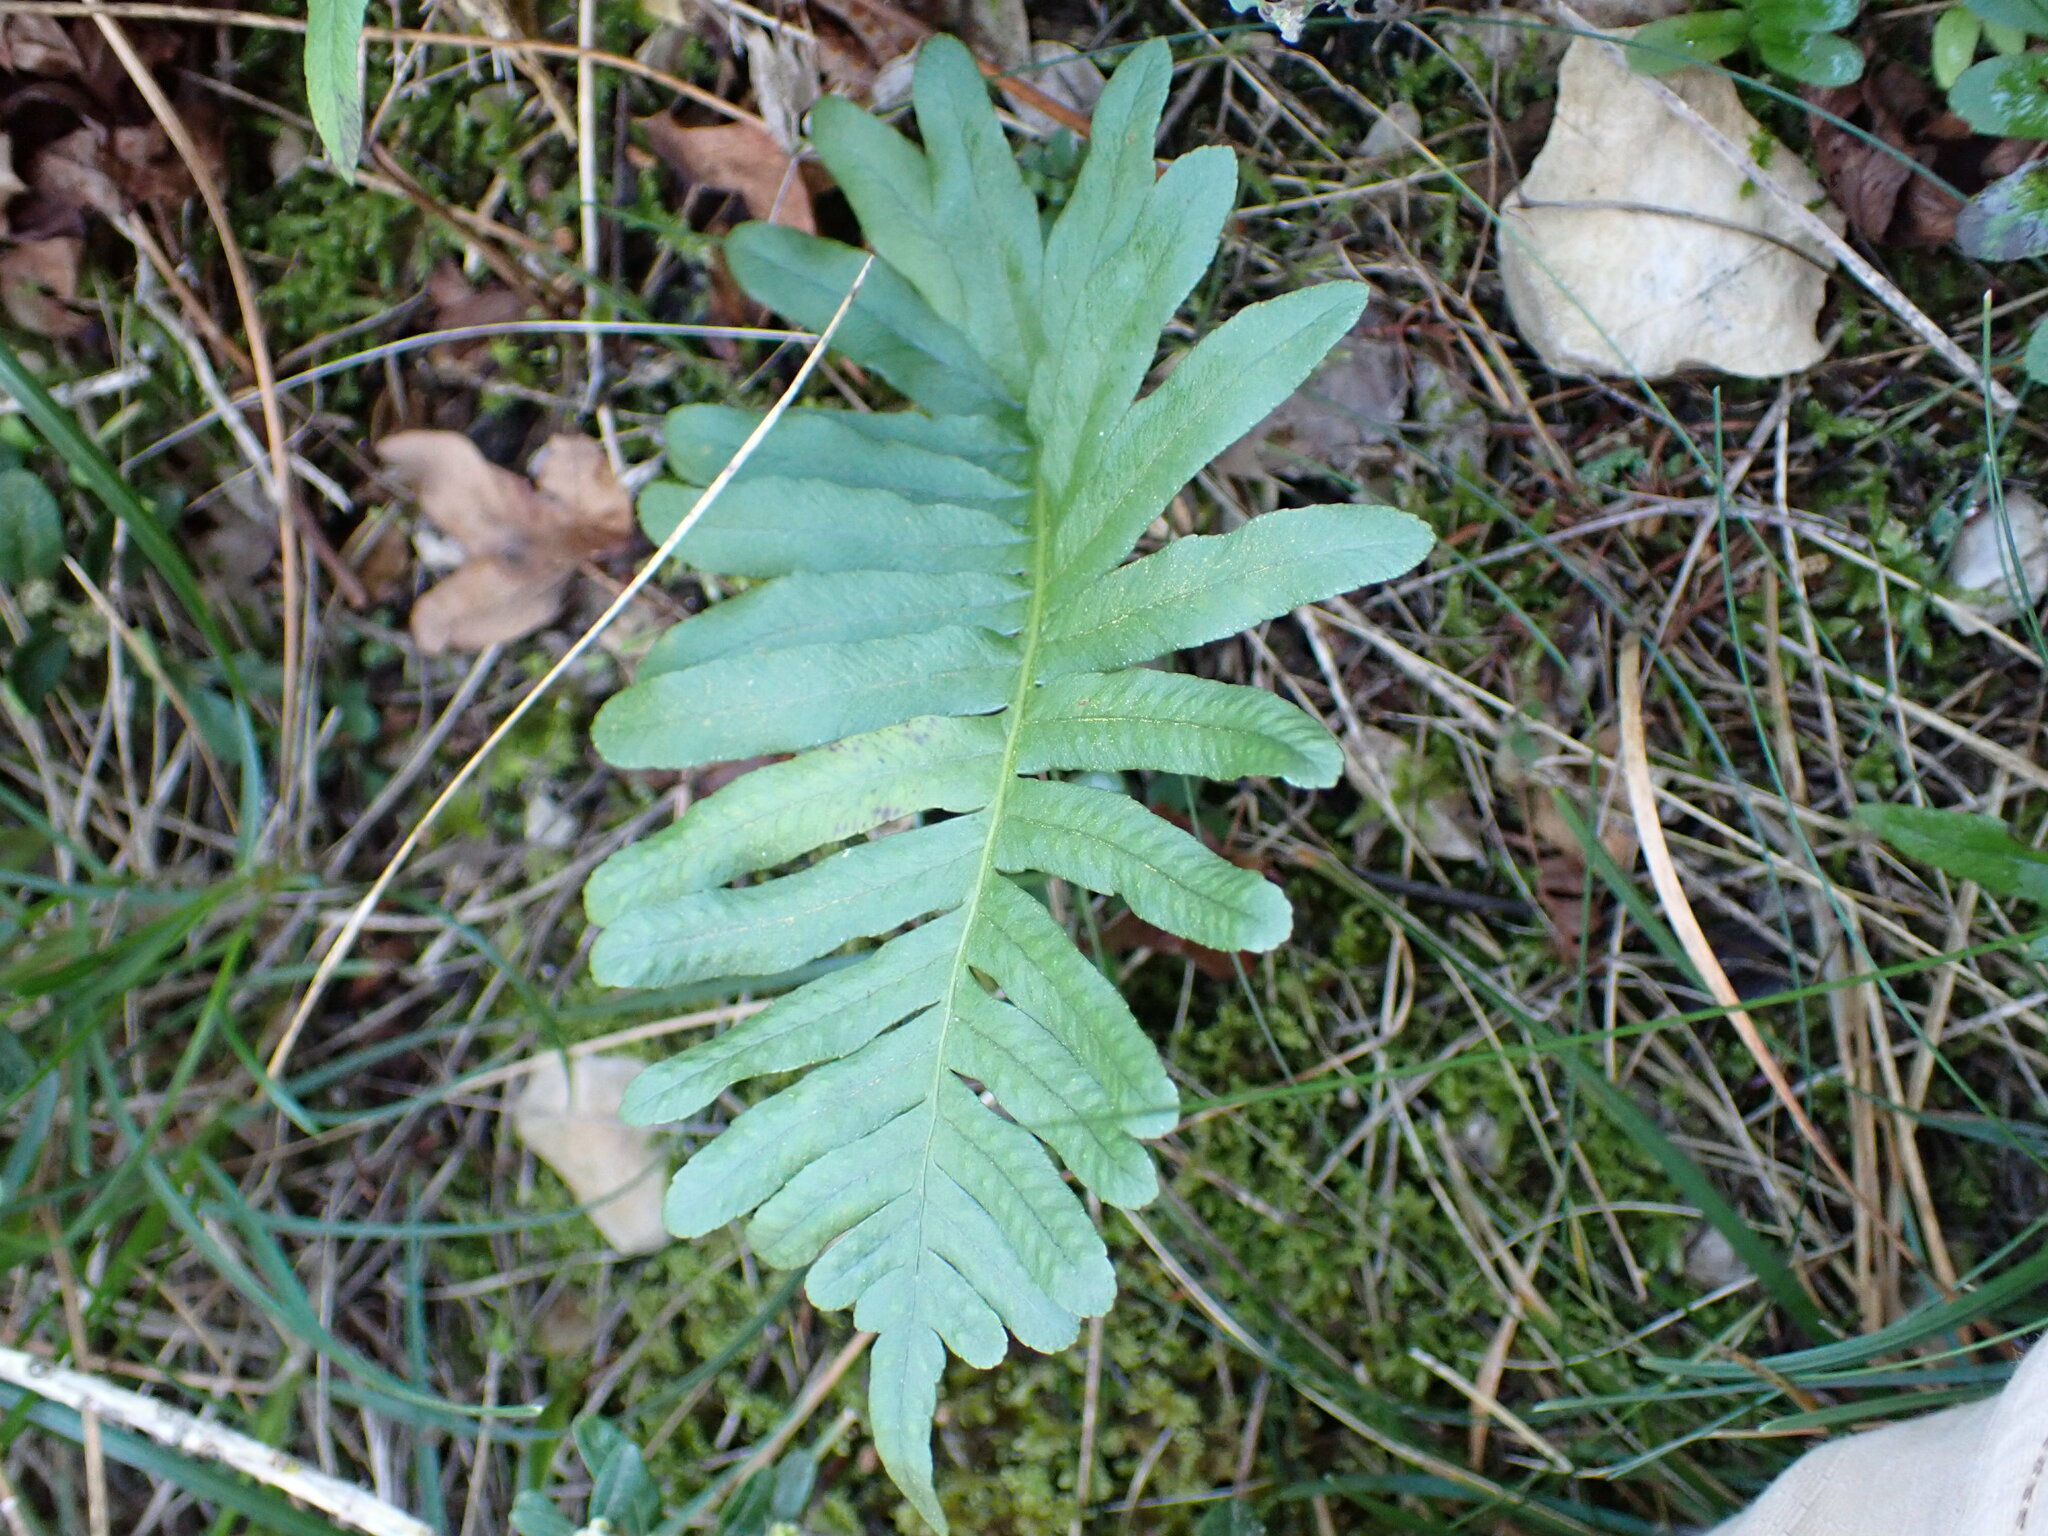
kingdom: Plantae
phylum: Tracheophyta
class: Polypodiopsida
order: Polypodiales
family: Polypodiaceae
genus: Polypodium
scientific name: Polypodium cambricum
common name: Southern polypody
